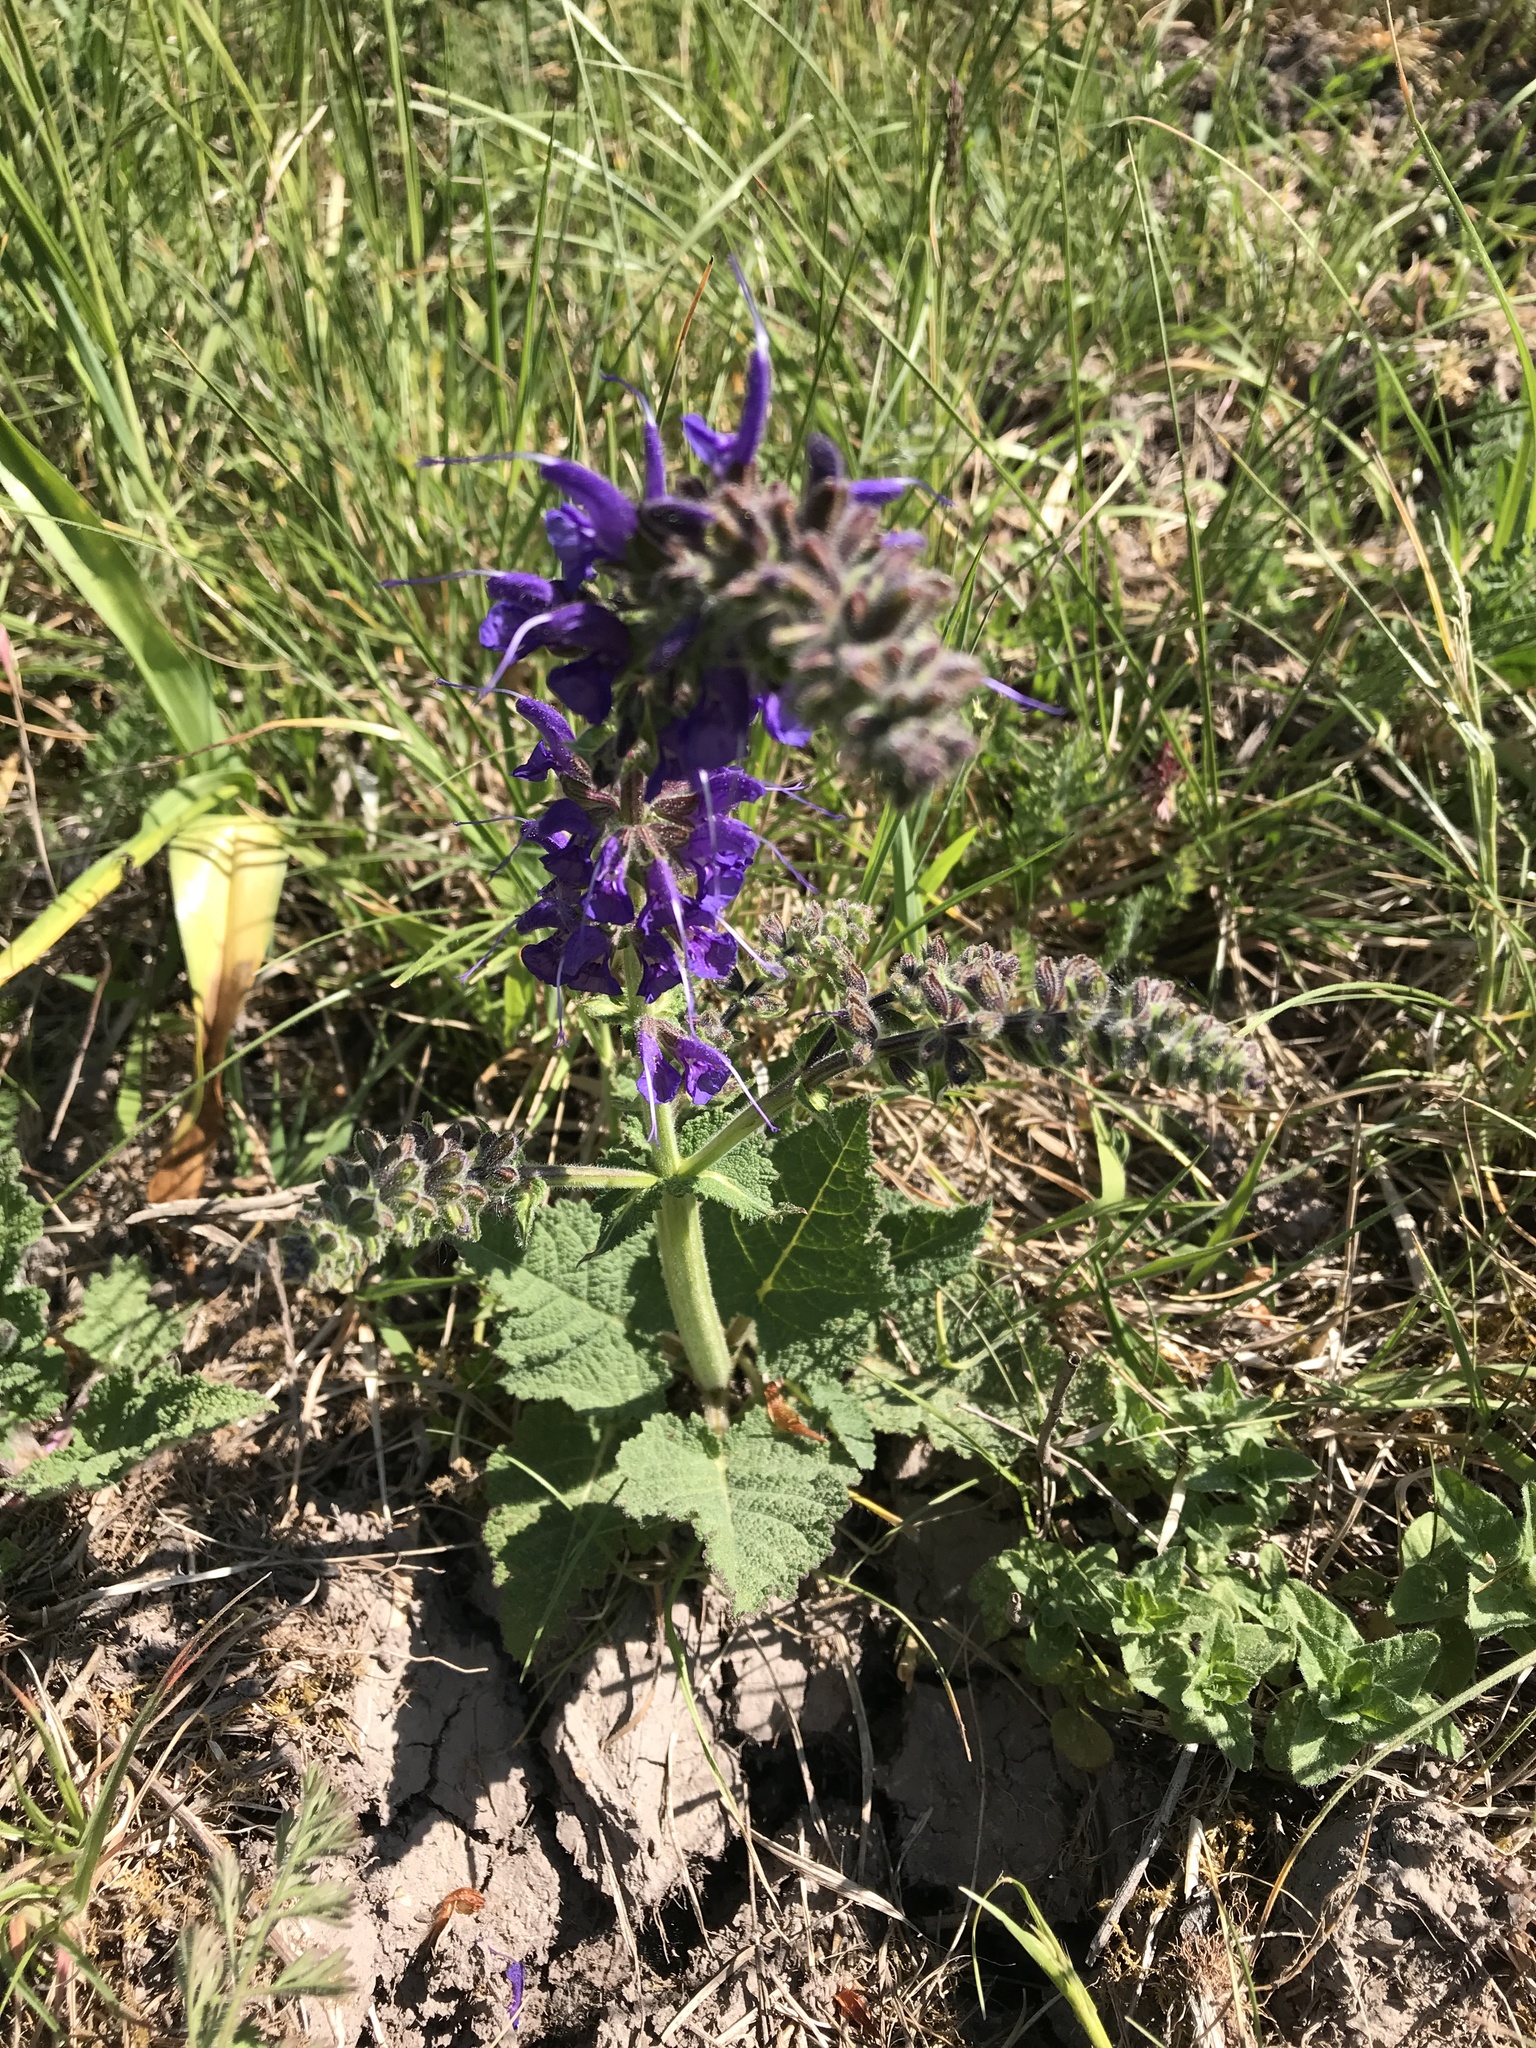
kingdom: Plantae
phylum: Tracheophyta
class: Magnoliopsida
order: Lamiales
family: Lamiaceae
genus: Salvia
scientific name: Salvia pratensis
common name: Meadow sage
